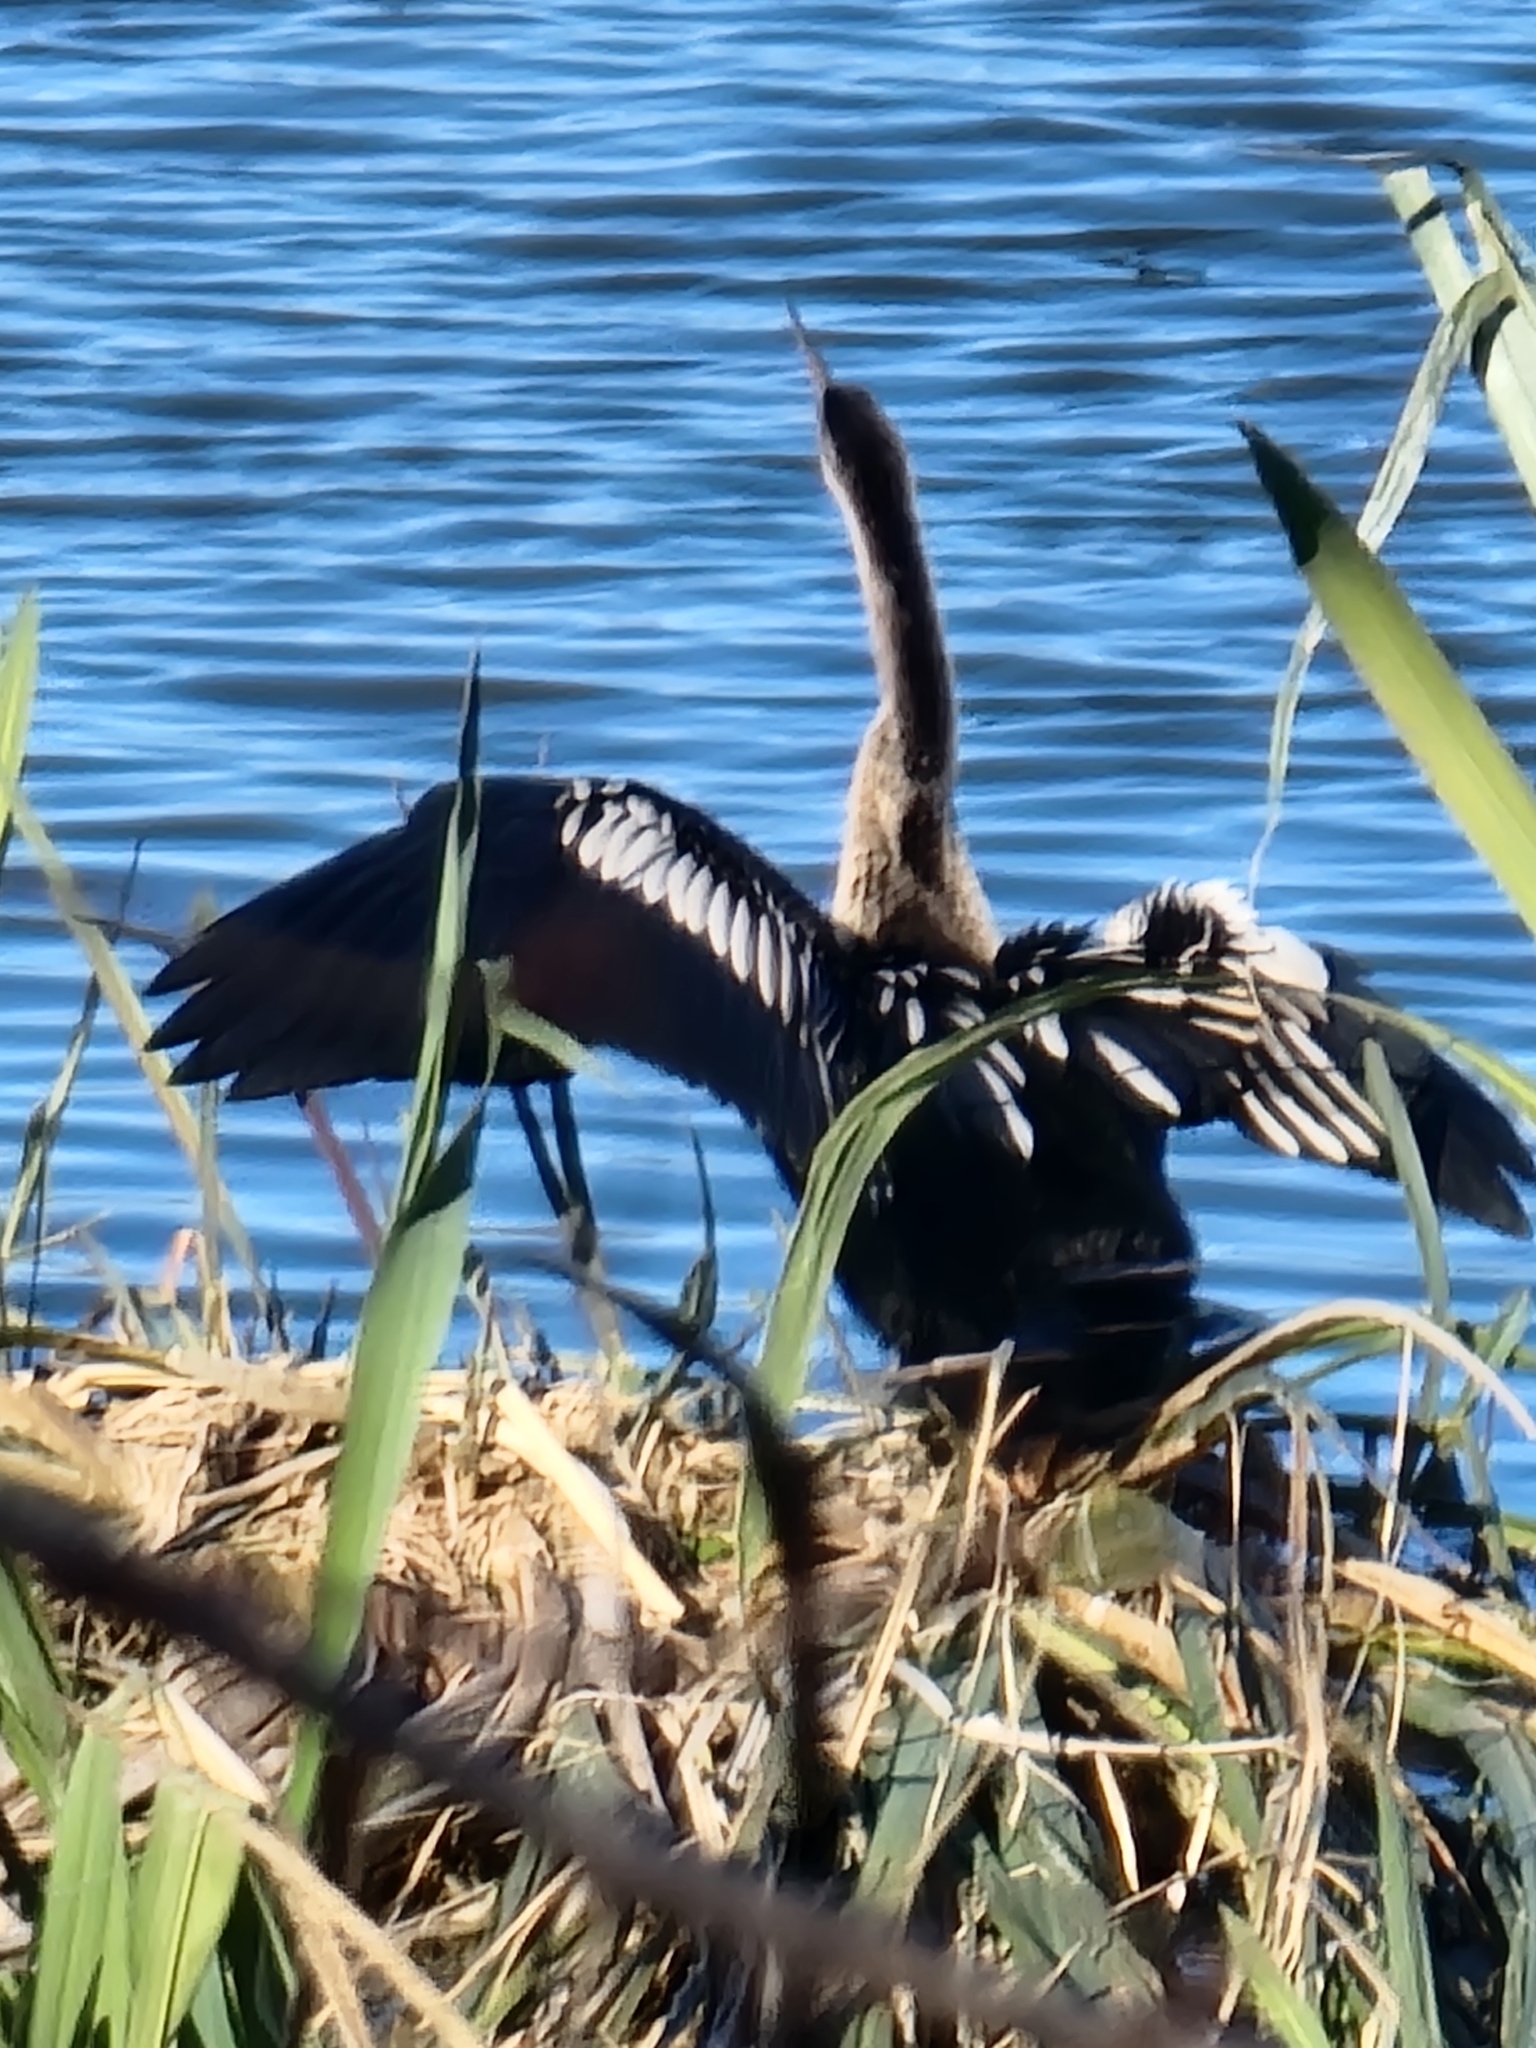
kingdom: Animalia
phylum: Chordata
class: Aves
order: Suliformes
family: Anhingidae
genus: Anhinga
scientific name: Anhinga anhinga
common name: Anhinga
